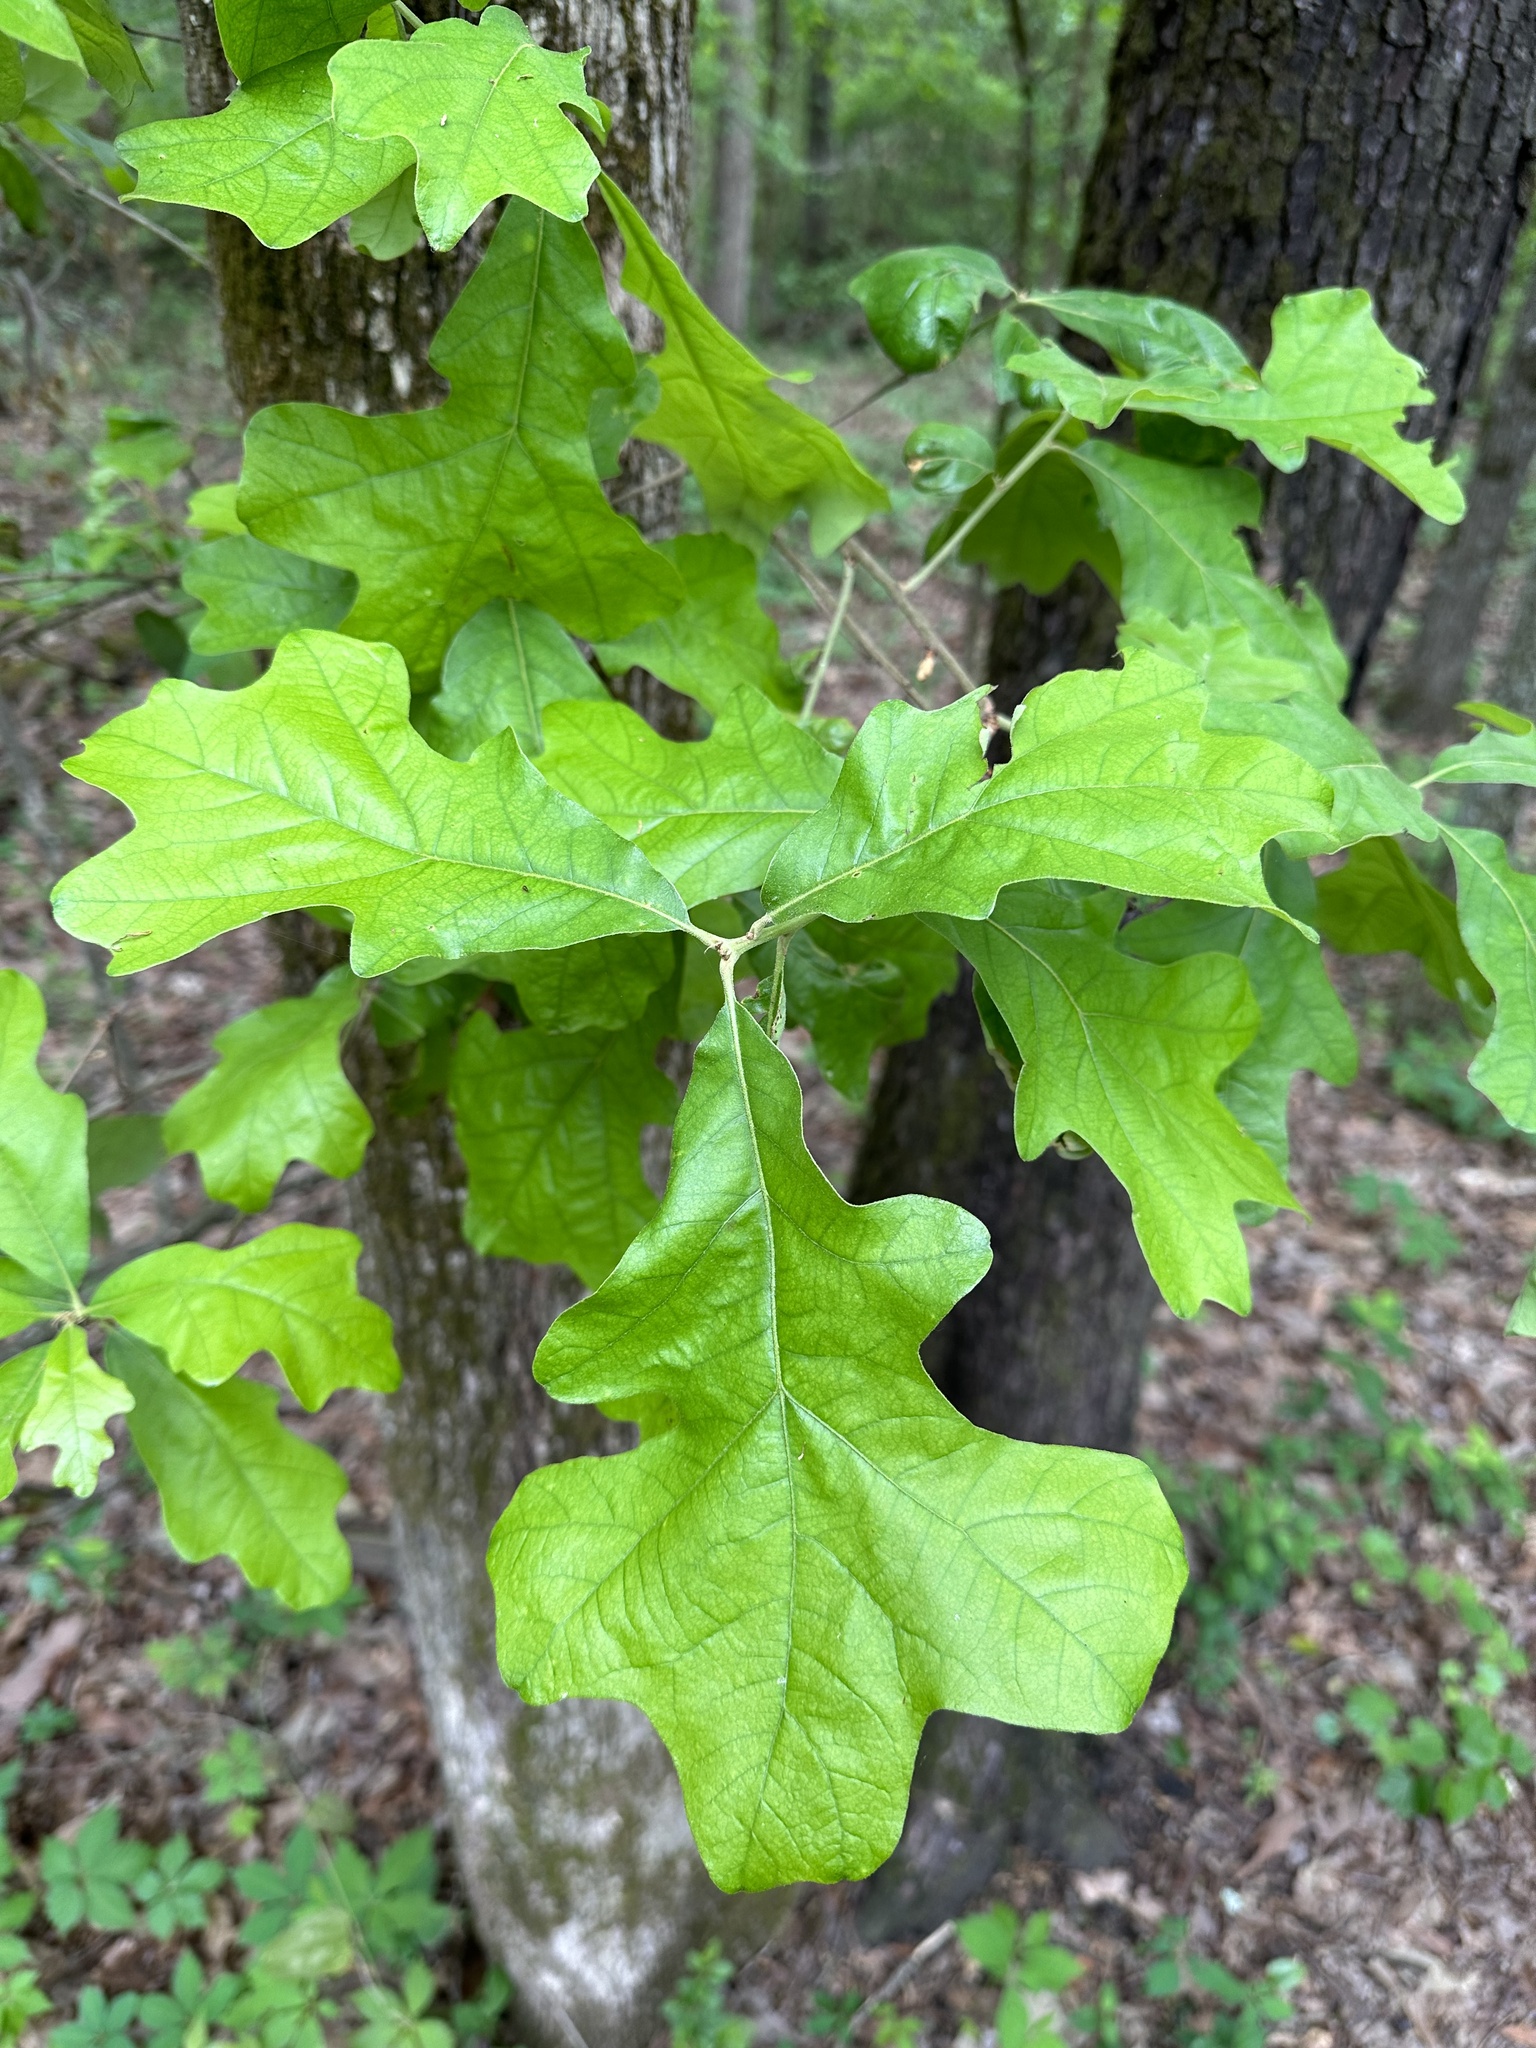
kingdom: Plantae
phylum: Tracheophyta
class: Magnoliopsida
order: Fagales
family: Fagaceae
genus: Quercus
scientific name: Quercus stellata
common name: Post oak
